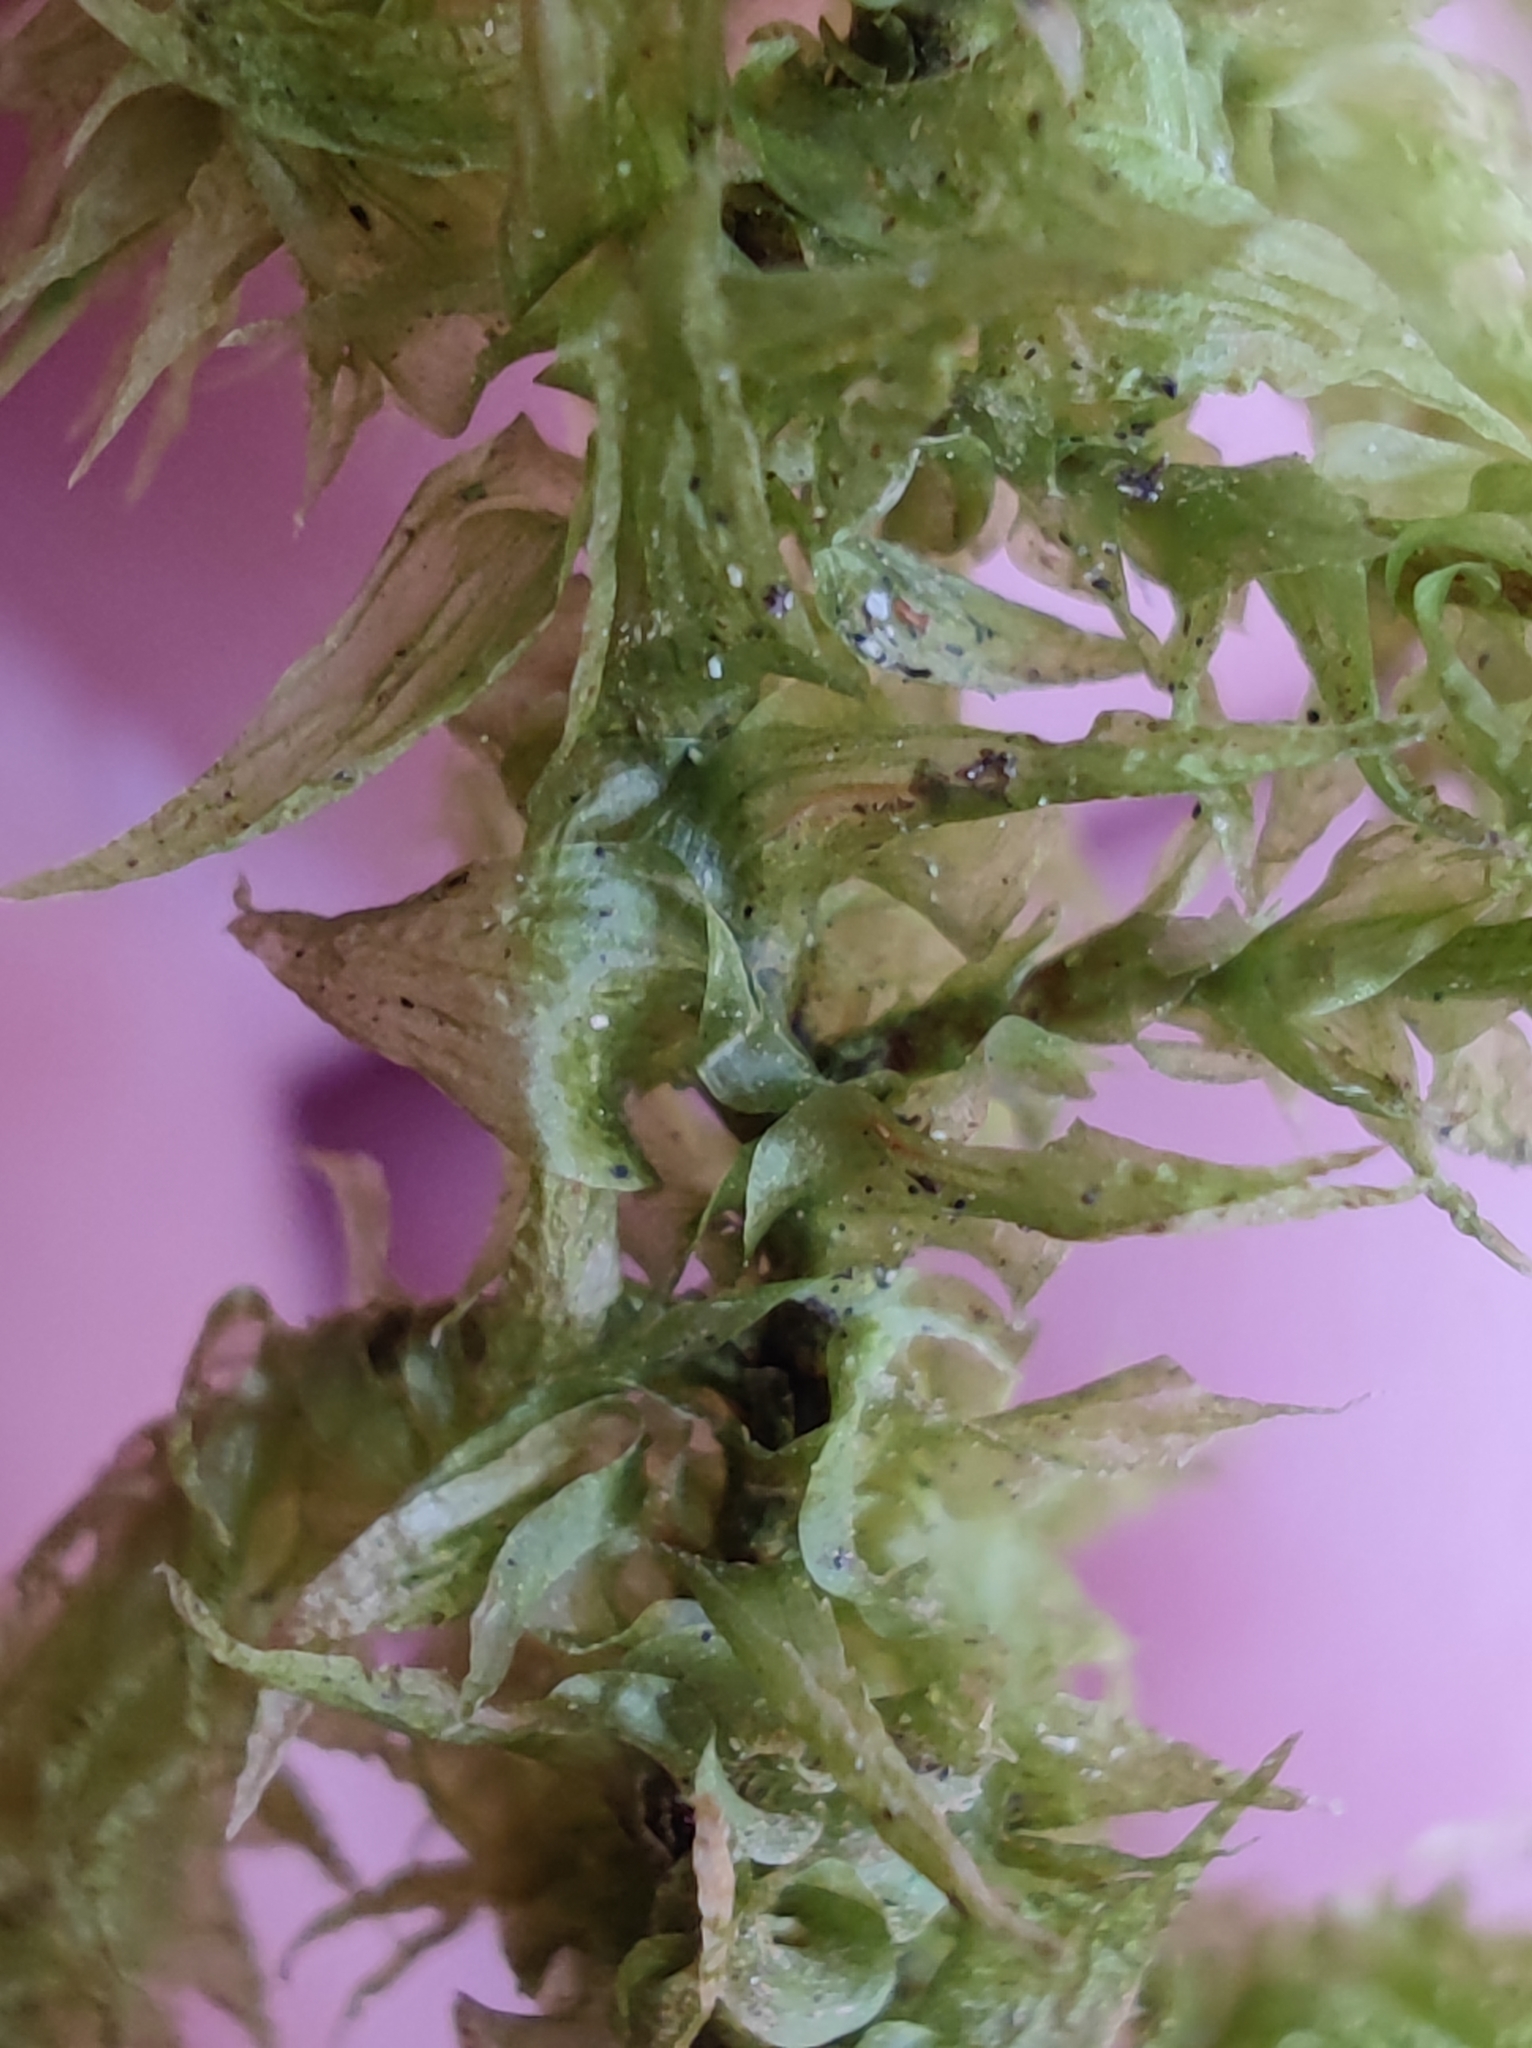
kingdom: Plantae
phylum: Bryophyta
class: Bryopsida
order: Hypnales
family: Hylocomiaceae
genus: Hylocomiadelphus
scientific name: Hylocomiadelphus triquetrus
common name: Rough goose neck moss
